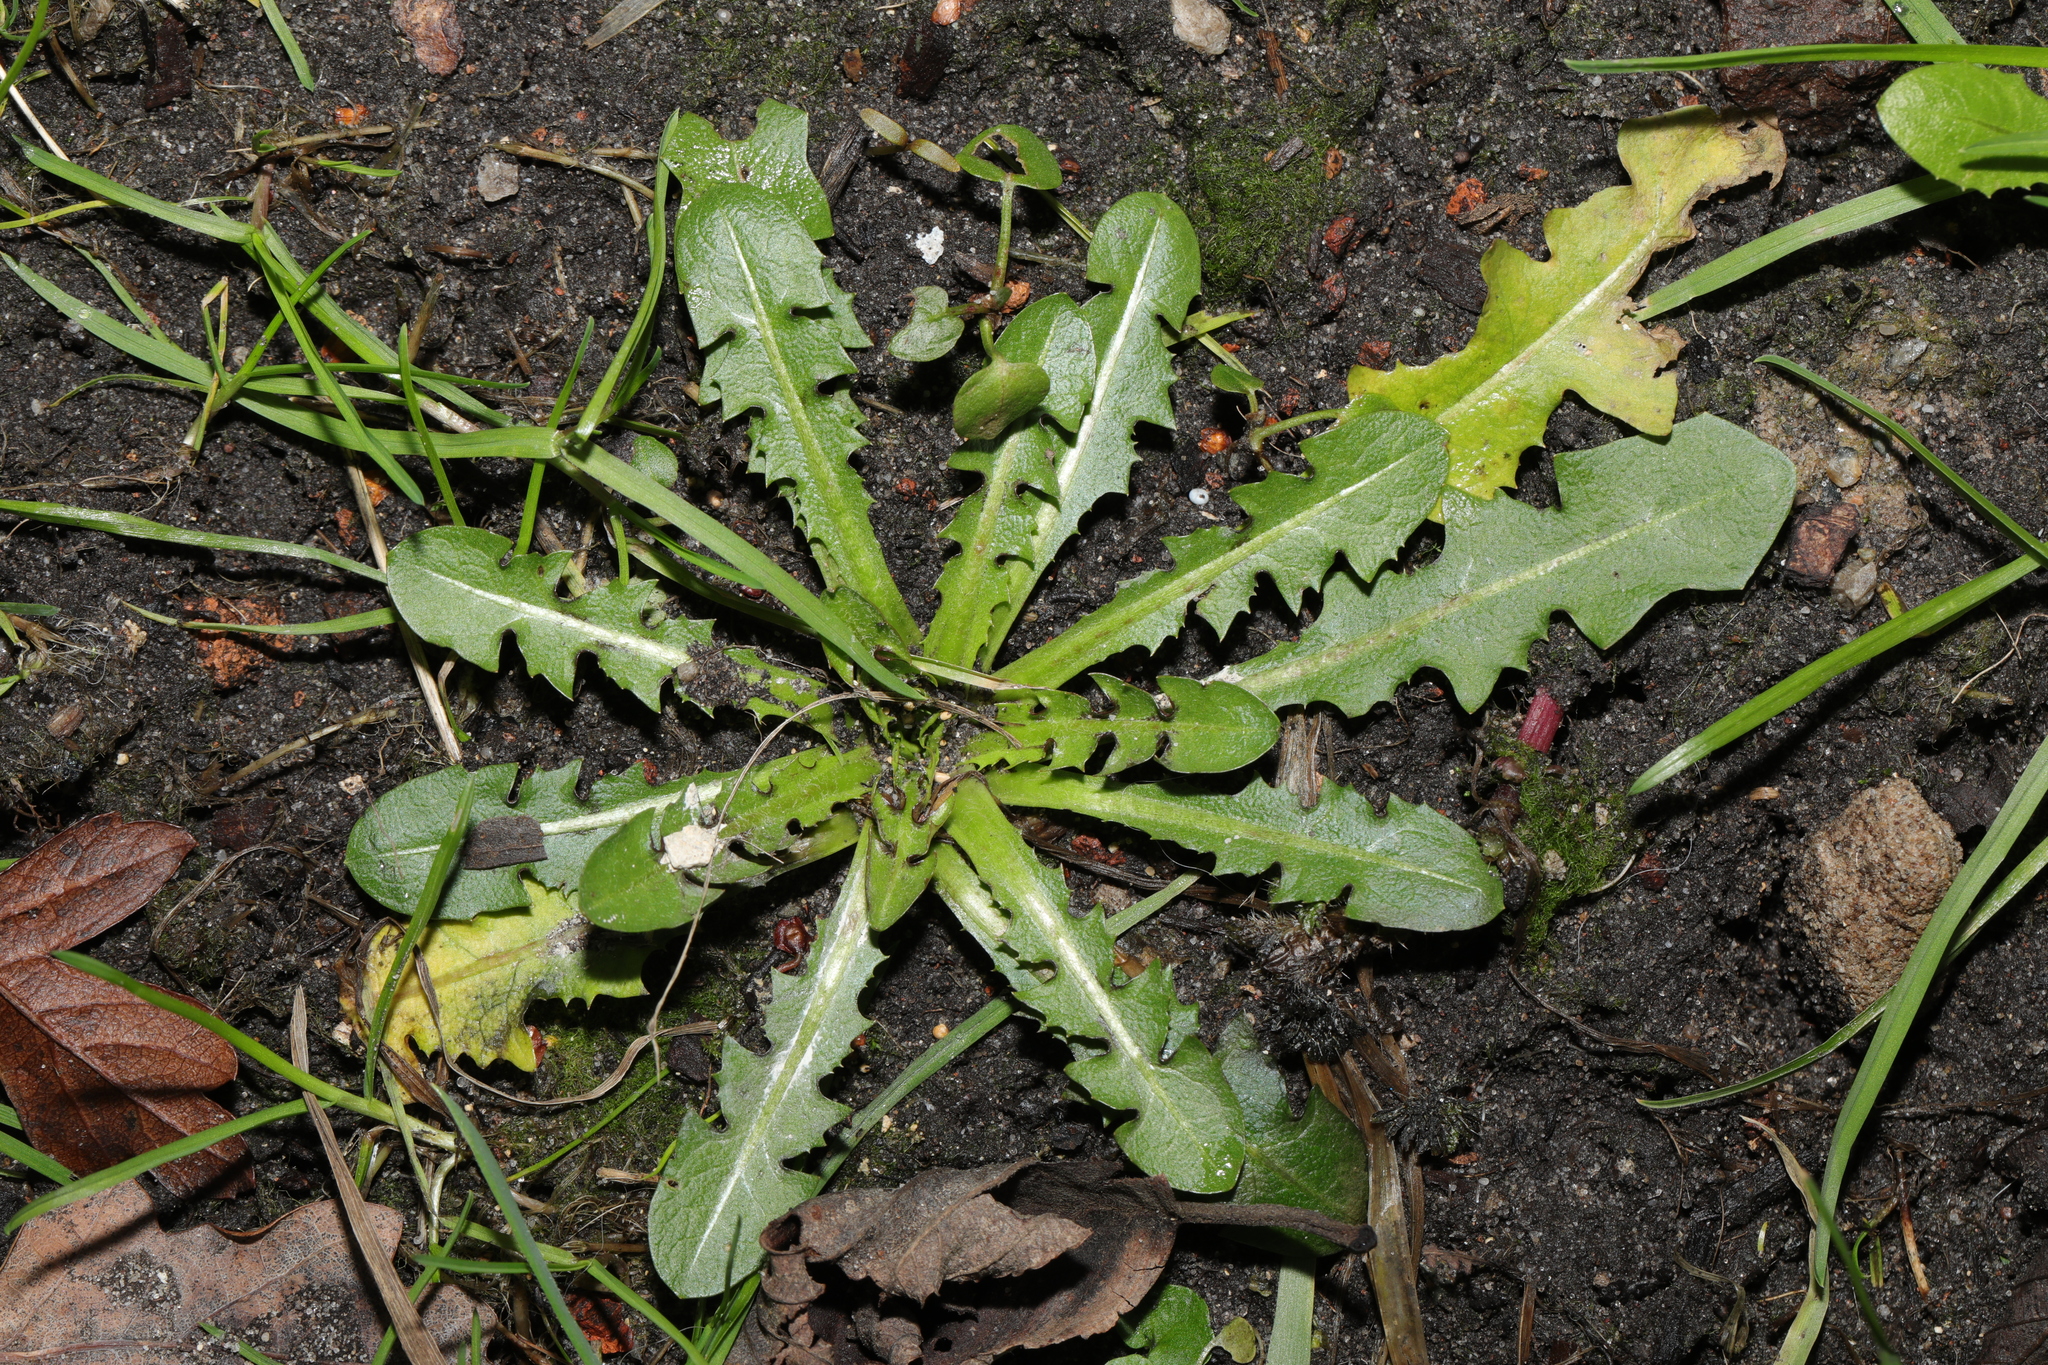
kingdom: Plantae
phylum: Tracheophyta
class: Magnoliopsida
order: Asterales
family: Asteraceae
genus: Taraxacum
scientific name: Taraxacum officinale
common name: Common dandelion
